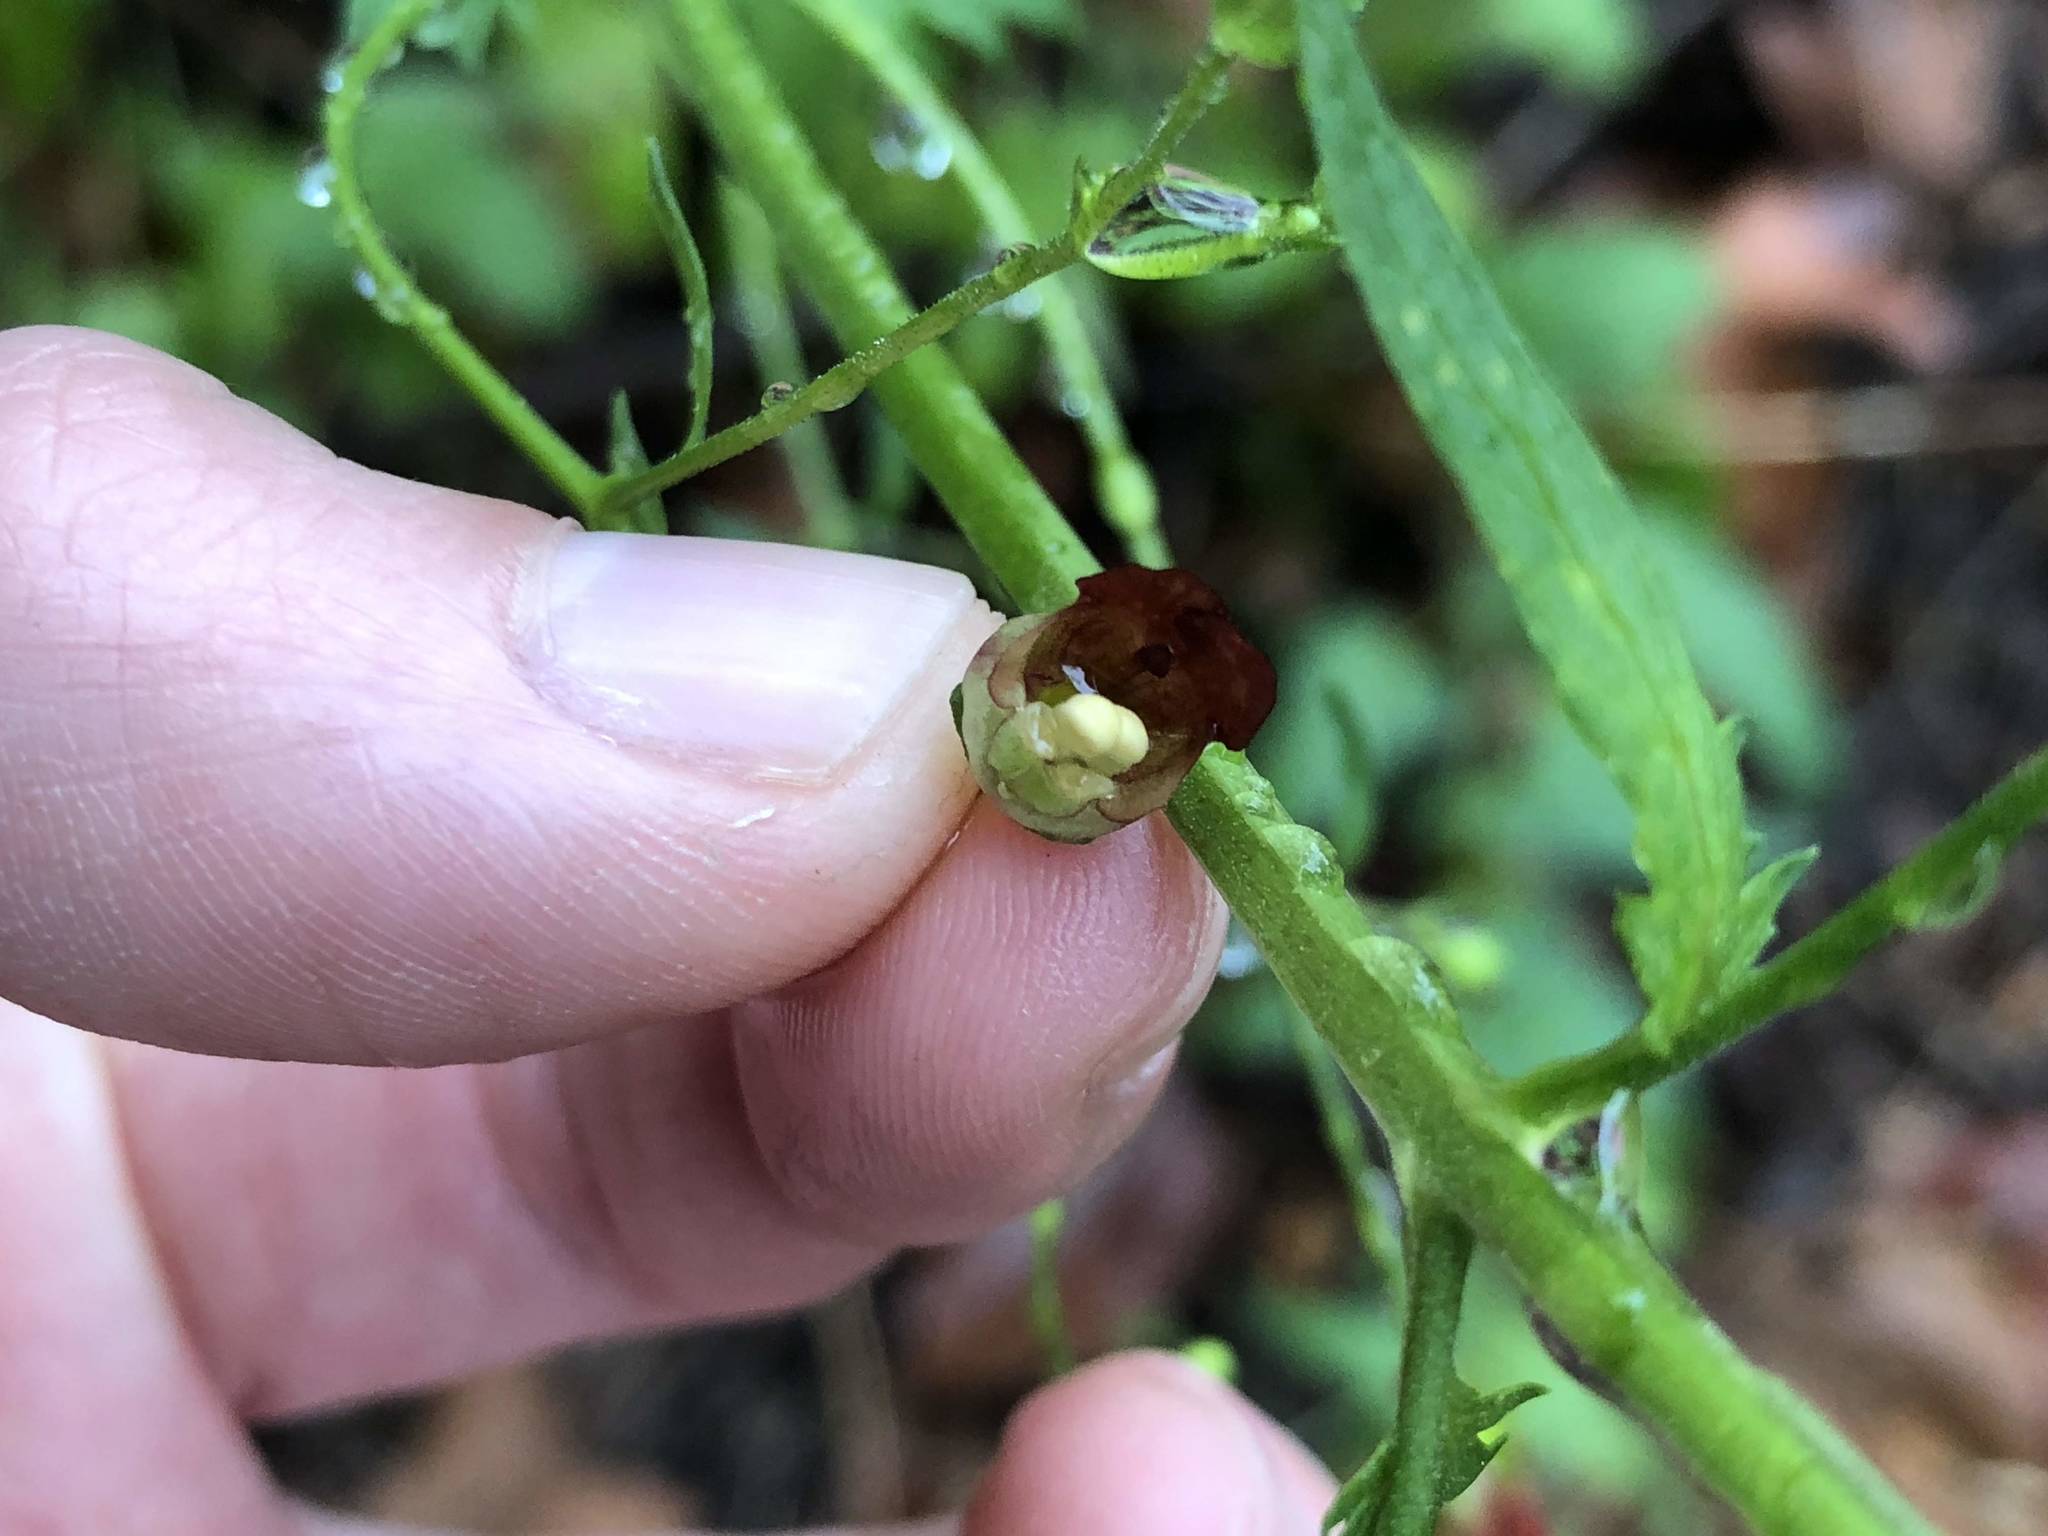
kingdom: Plantae
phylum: Tracheophyta
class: Magnoliopsida
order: Lamiales
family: Scrophulariaceae
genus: Scrophularia
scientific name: Scrophularia californica
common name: California figwort
